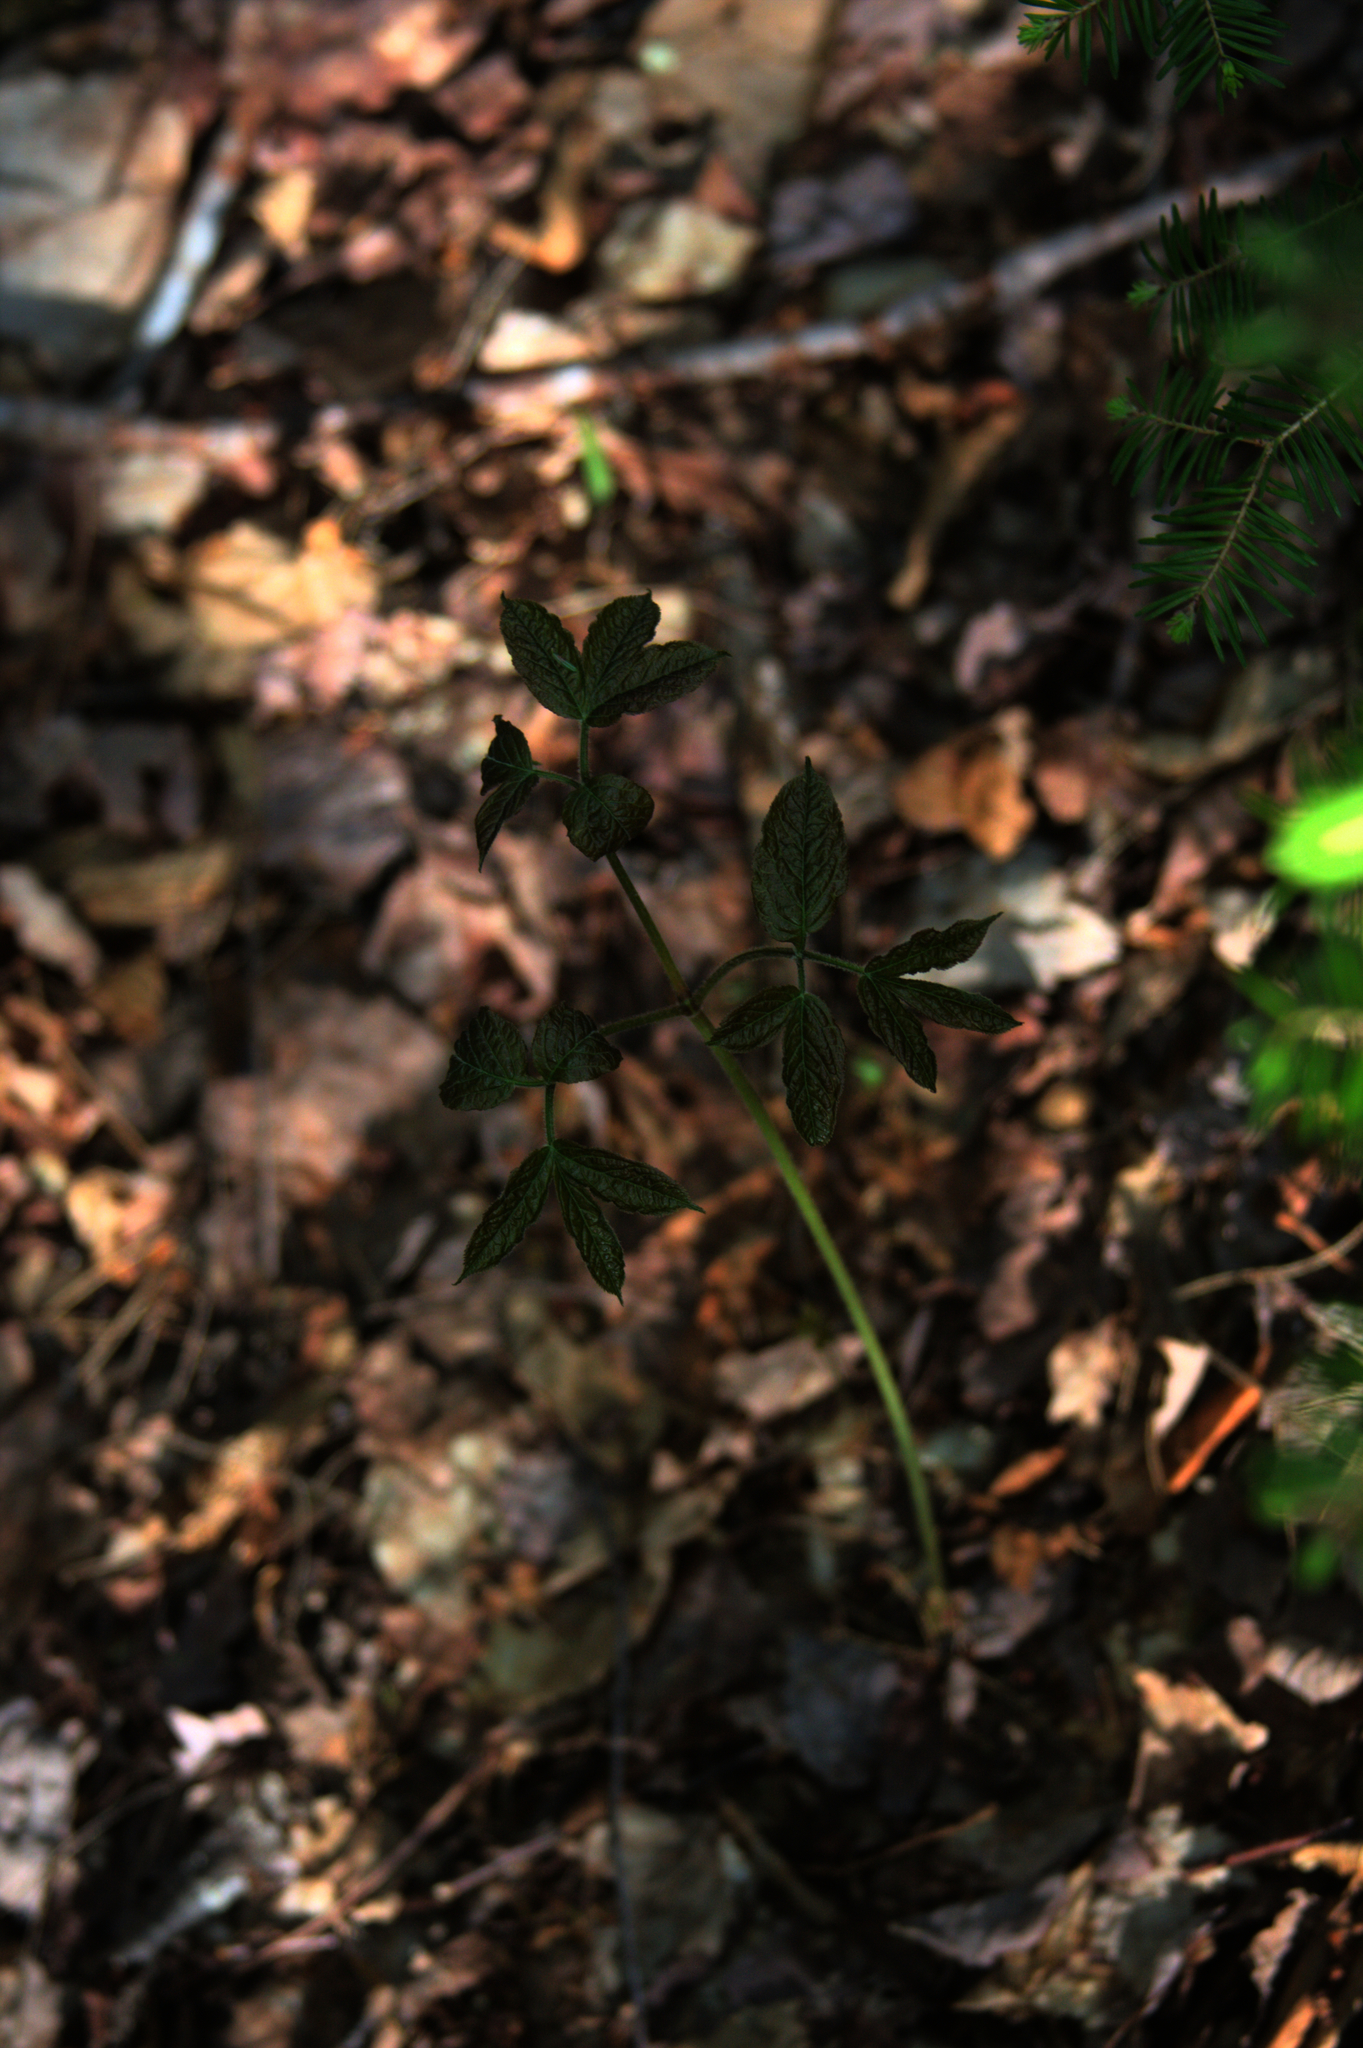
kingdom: Plantae
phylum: Tracheophyta
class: Magnoliopsida
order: Apiales
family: Araliaceae
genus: Aralia
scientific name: Aralia nudicaulis
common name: Wild sarsaparilla
